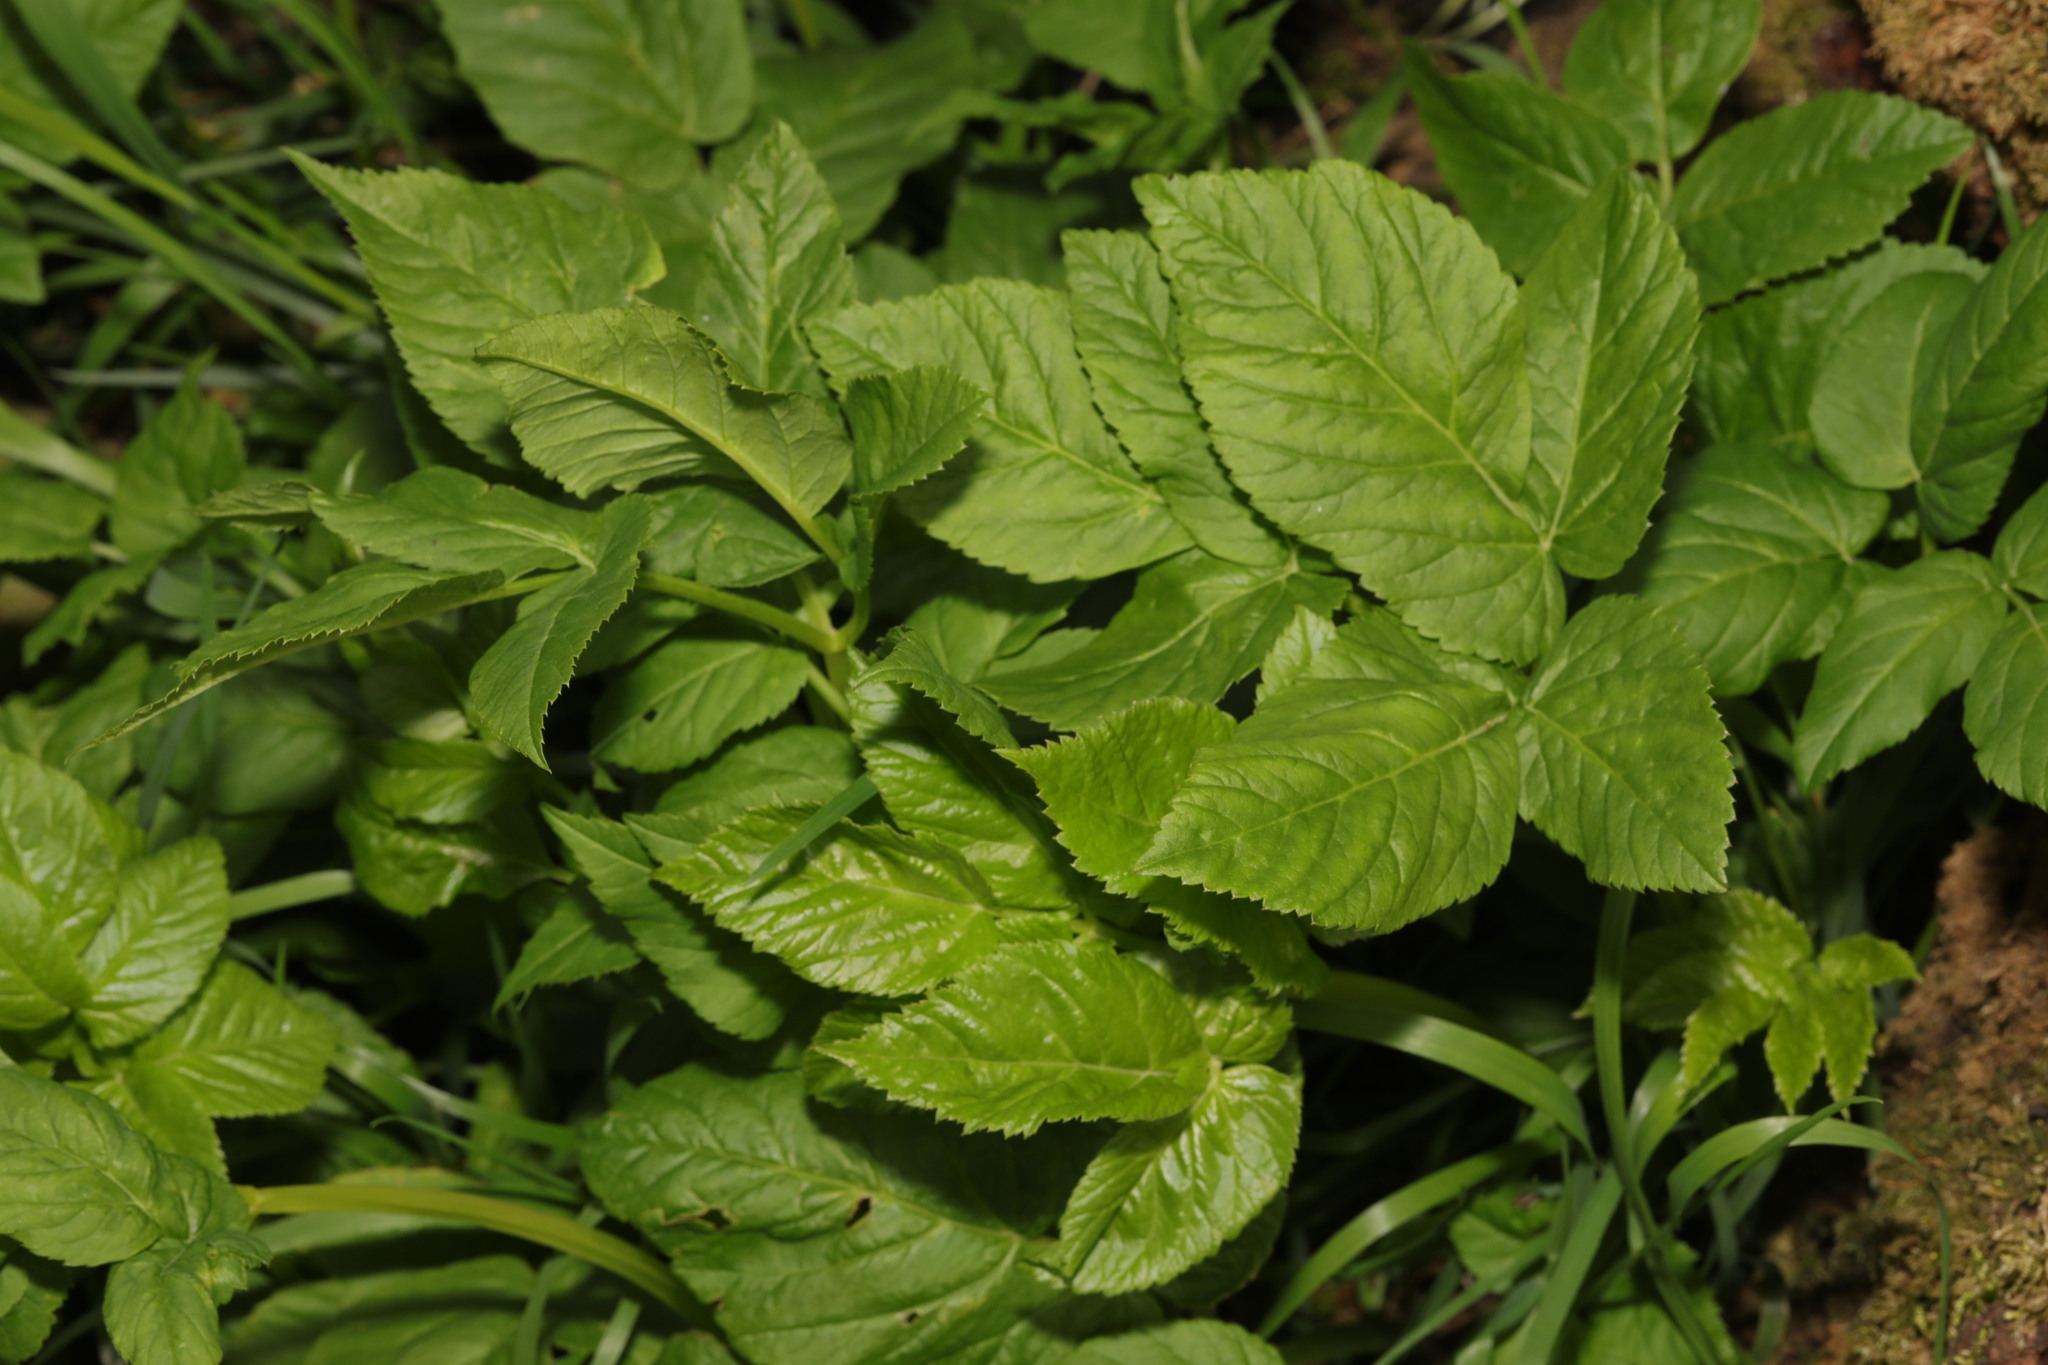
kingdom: Plantae
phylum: Tracheophyta
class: Magnoliopsida
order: Apiales
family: Apiaceae
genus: Aegopodium
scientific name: Aegopodium podagraria
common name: Ground-elder
